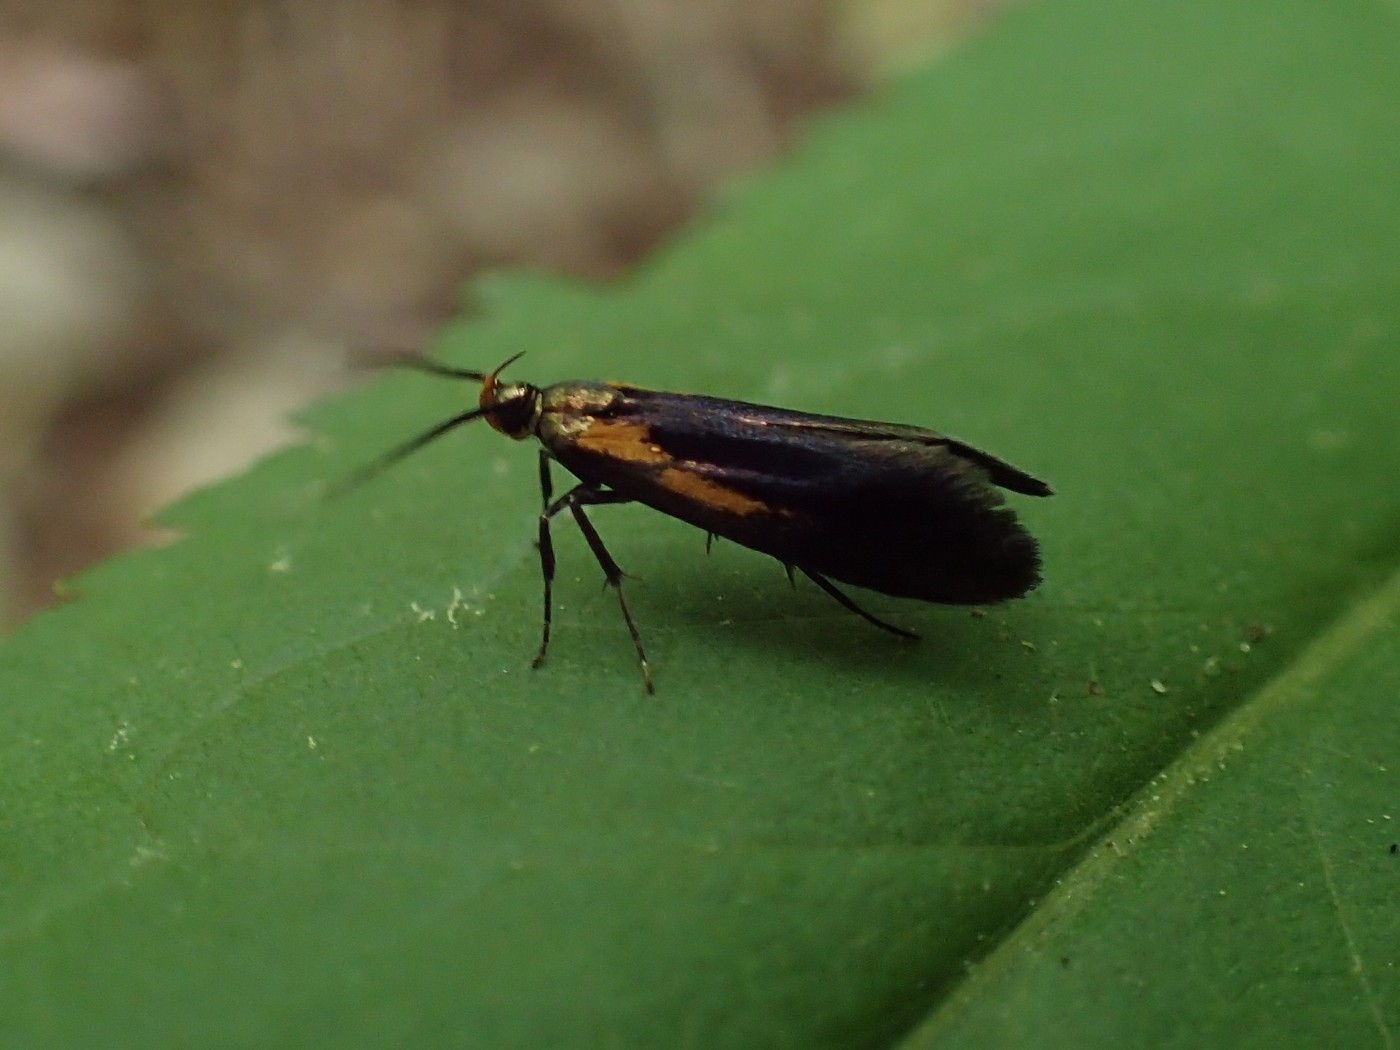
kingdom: Animalia
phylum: Arthropoda
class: Insecta
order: Lepidoptera
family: Oecophoridae
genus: Mathildana
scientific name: Mathildana newmanella
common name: Newman's mathildana moth
